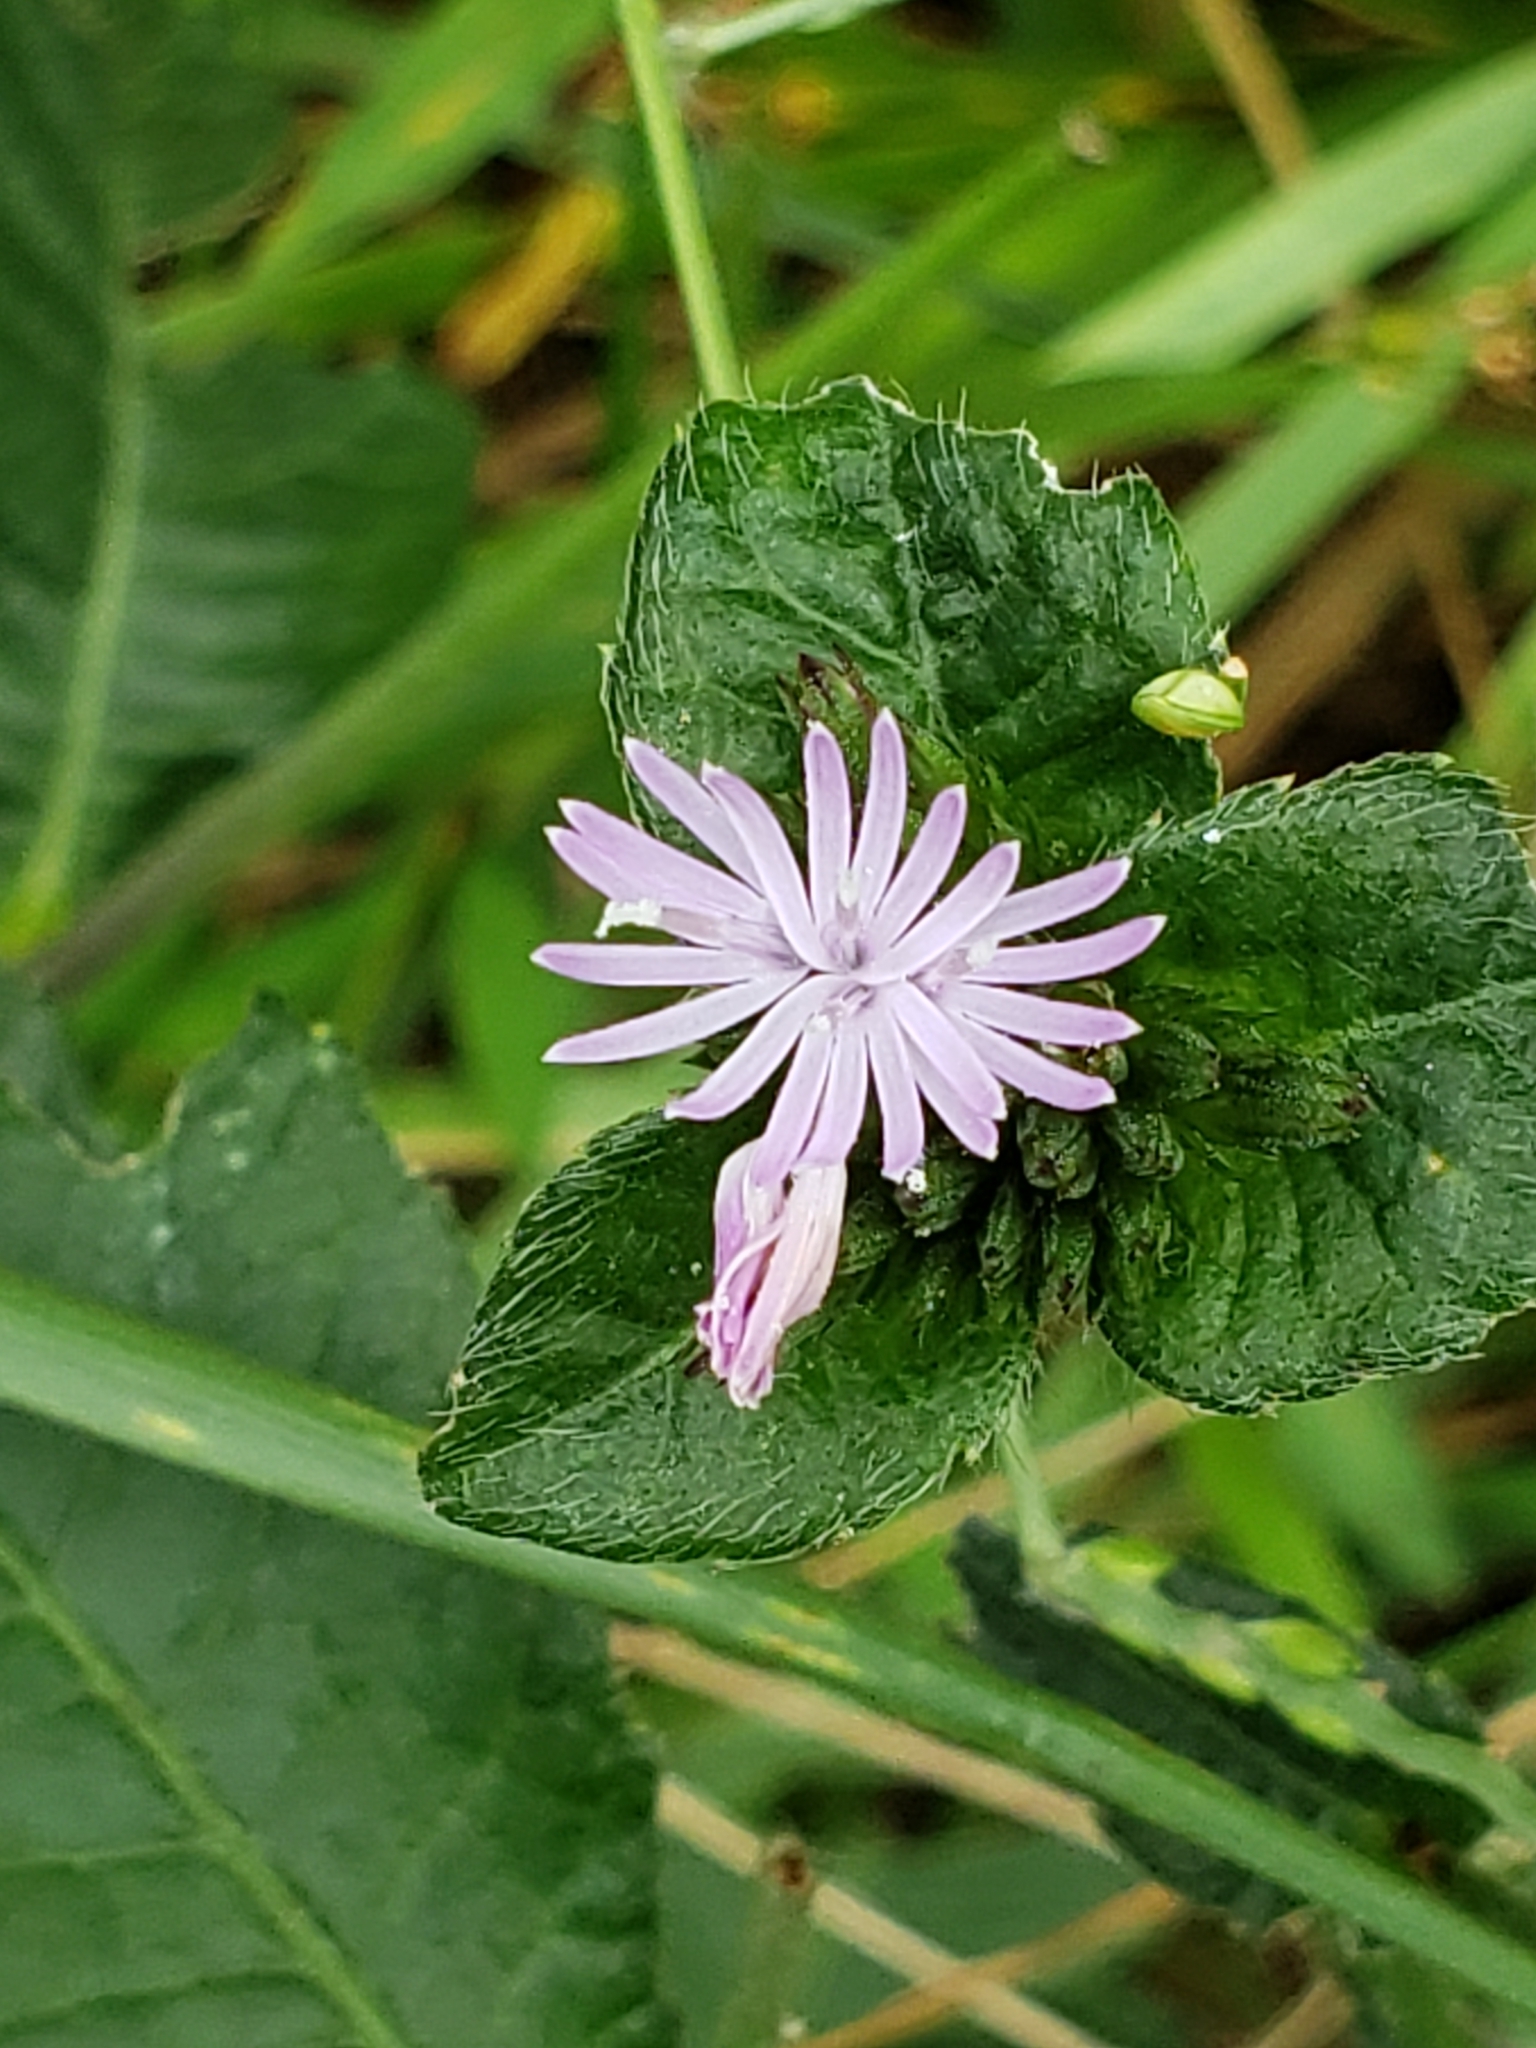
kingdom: Plantae
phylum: Tracheophyta
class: Magnoliopsida
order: Asterales
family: Asteraceae
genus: Elephantopus
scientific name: Elephantopus carolinianus
